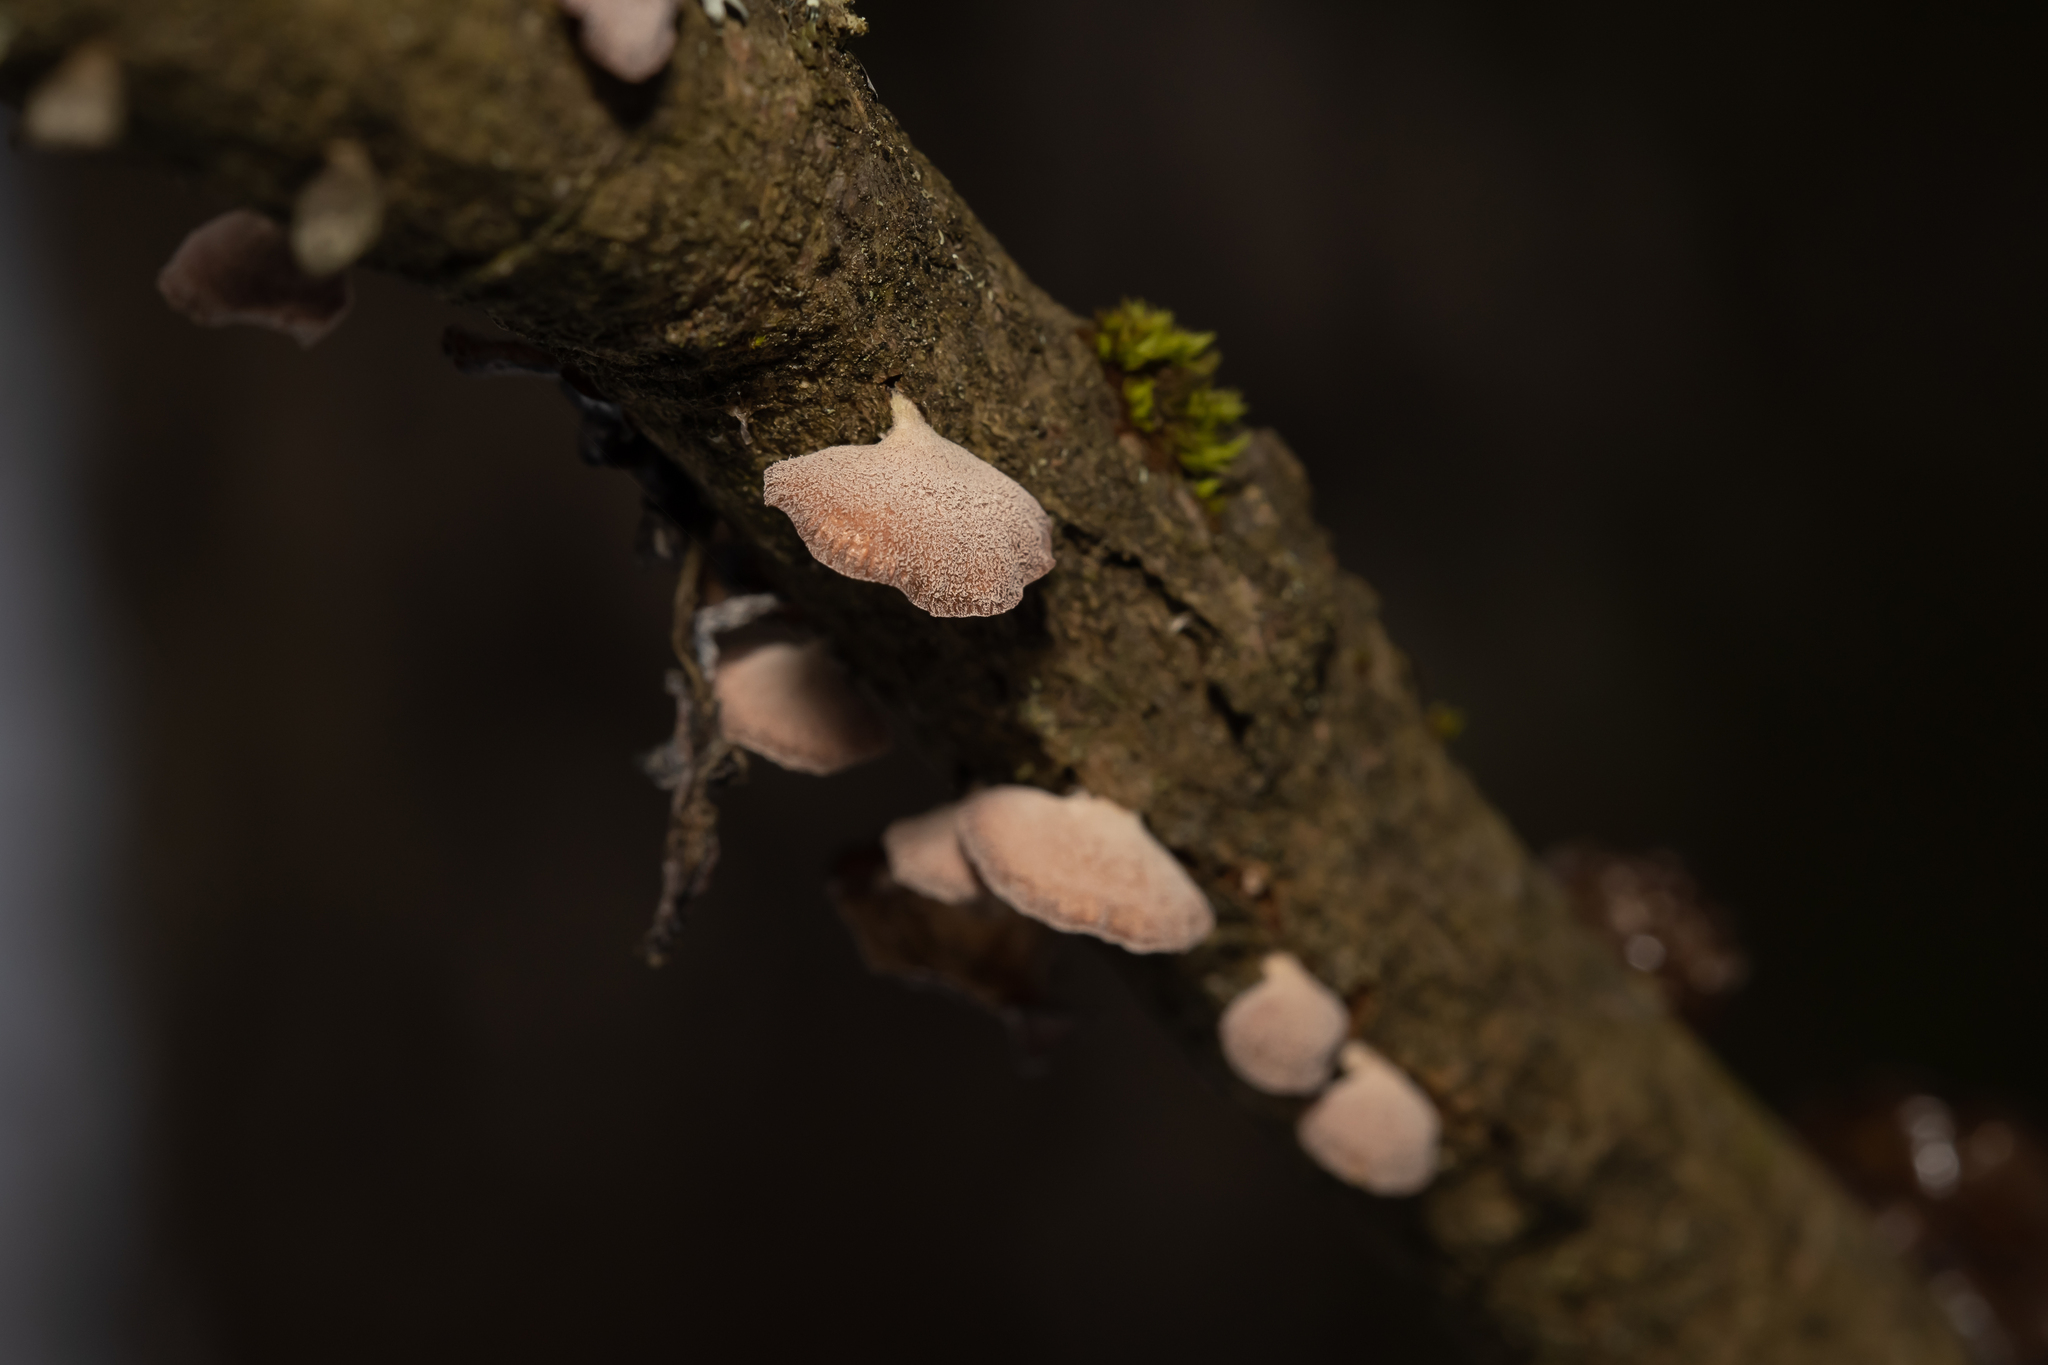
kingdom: Fungi
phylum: Basidiomycota
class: Agaricomycetes
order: Agaricales
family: Mycenaceae
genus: Panellus
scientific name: Panellus ringens
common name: Winter oysterling
